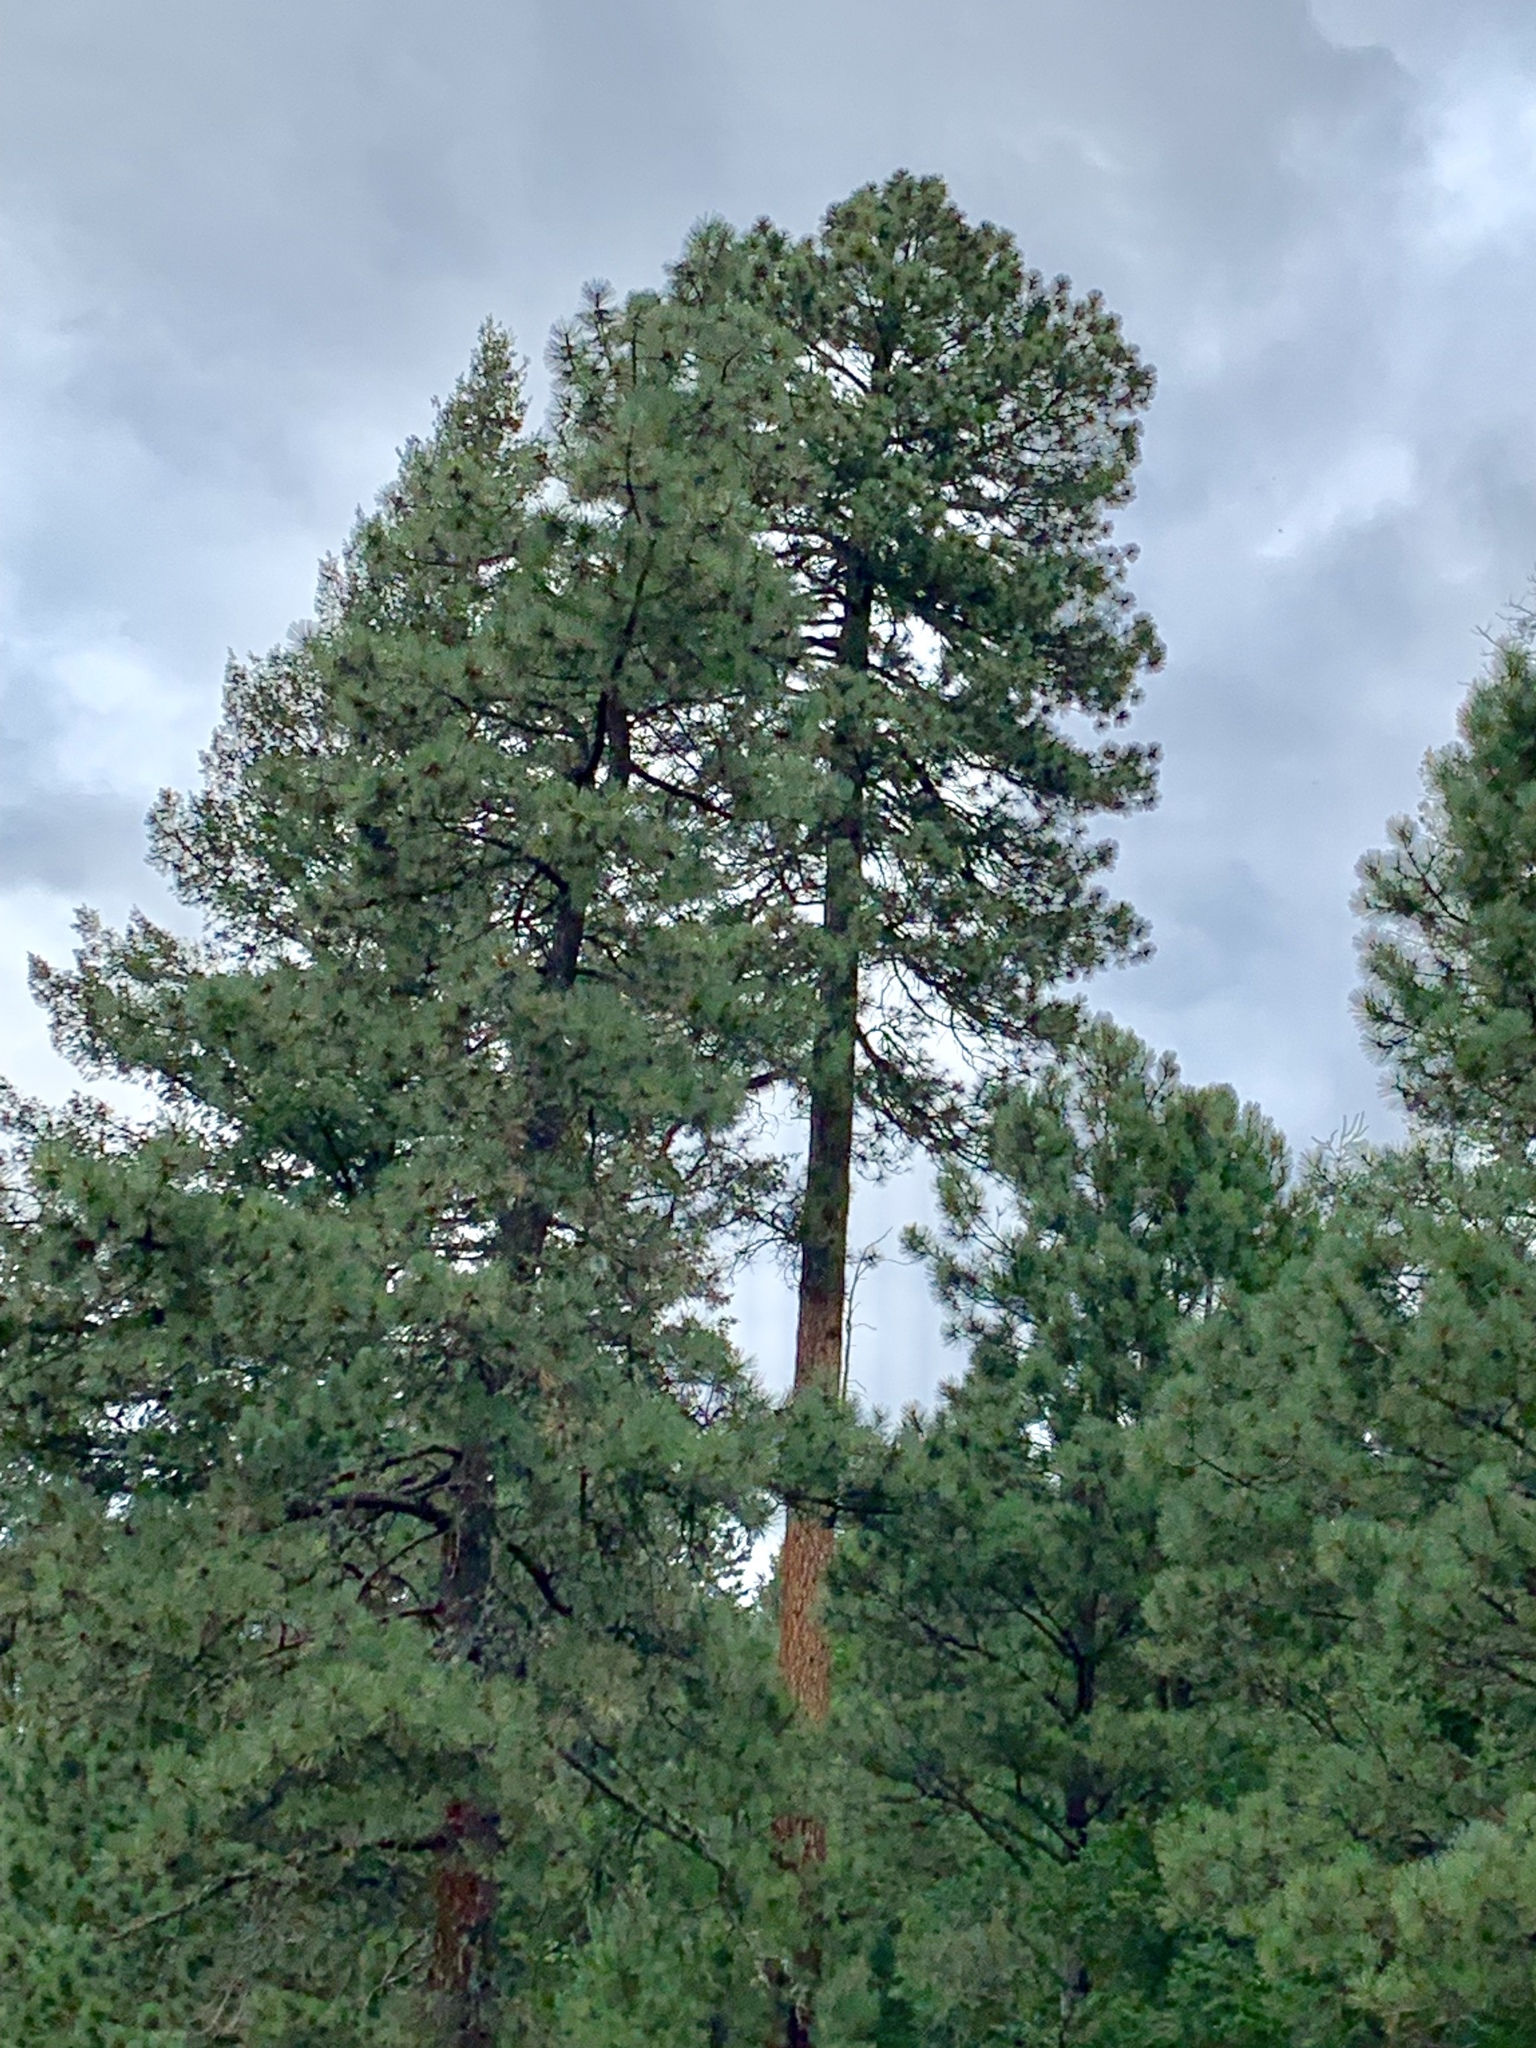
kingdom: Plantae
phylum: Tracheophyta
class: Pinopsida
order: Pinales
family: Pinaceae
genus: Pinus
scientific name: Pinus ponderosa
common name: Western yellow-pine
